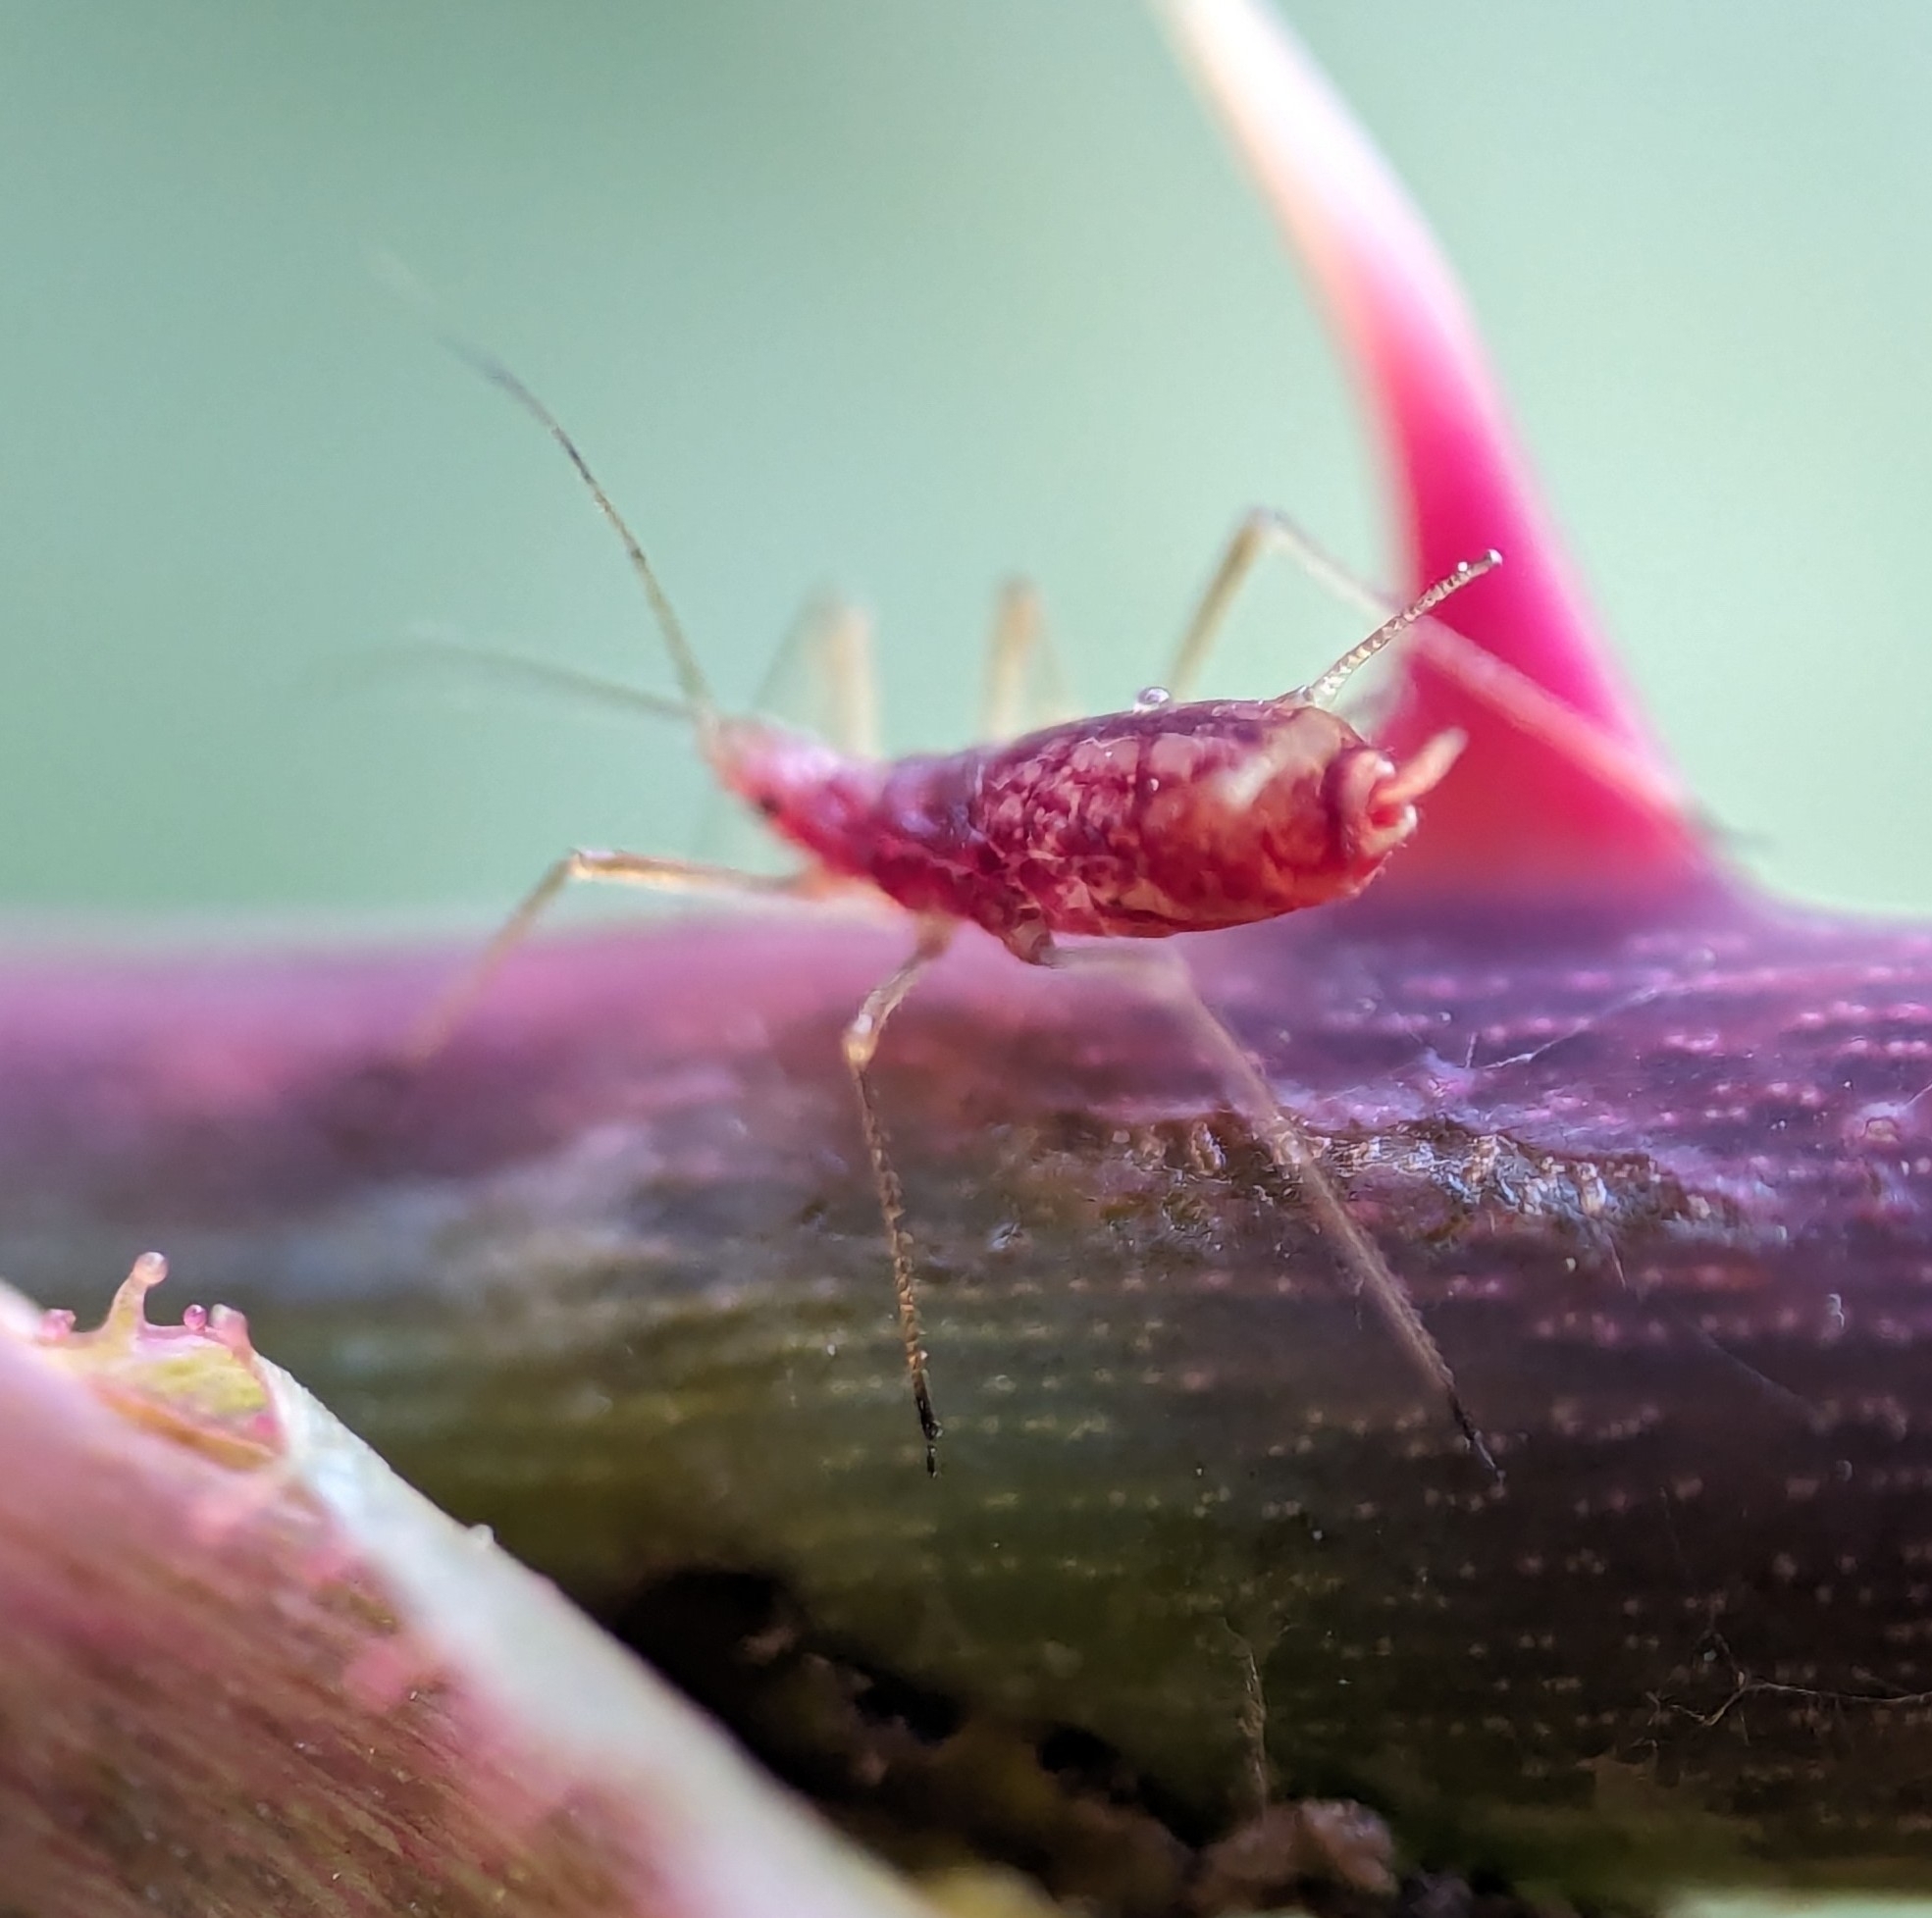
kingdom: Animalia
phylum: Arthropoda
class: Insecta
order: Hemiptera
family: Aphididae
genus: Macrosiphum
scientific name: Macrosiphum euphorbiae
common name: Potato aphid
